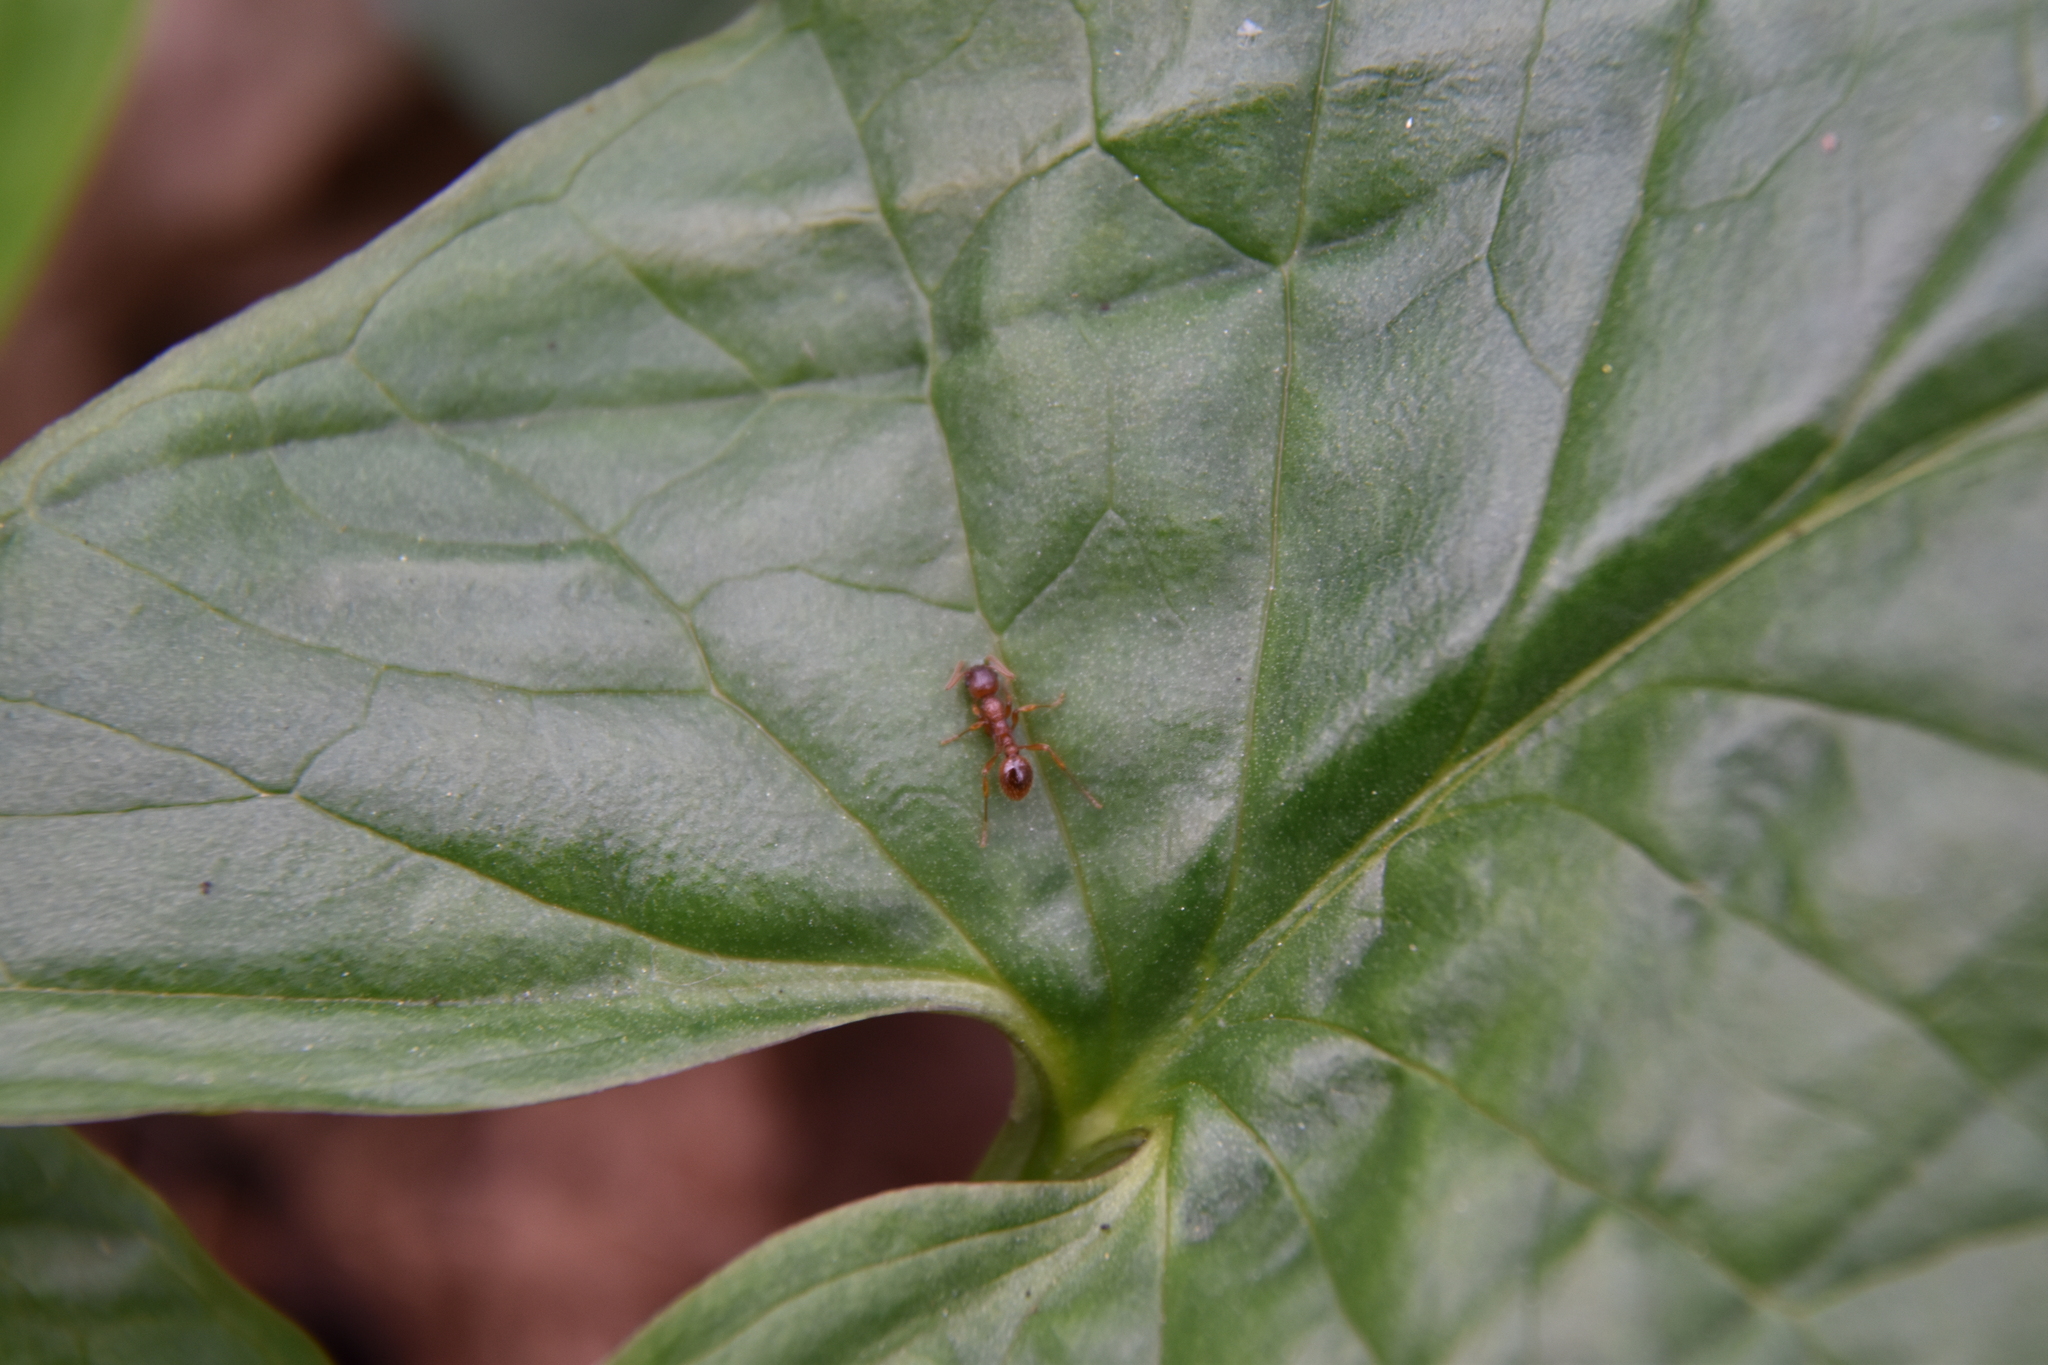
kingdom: Animalia
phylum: Arthropoda
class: Insecta
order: Hymenoptera
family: Formicidae
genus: Myrmica
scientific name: Myrmica
